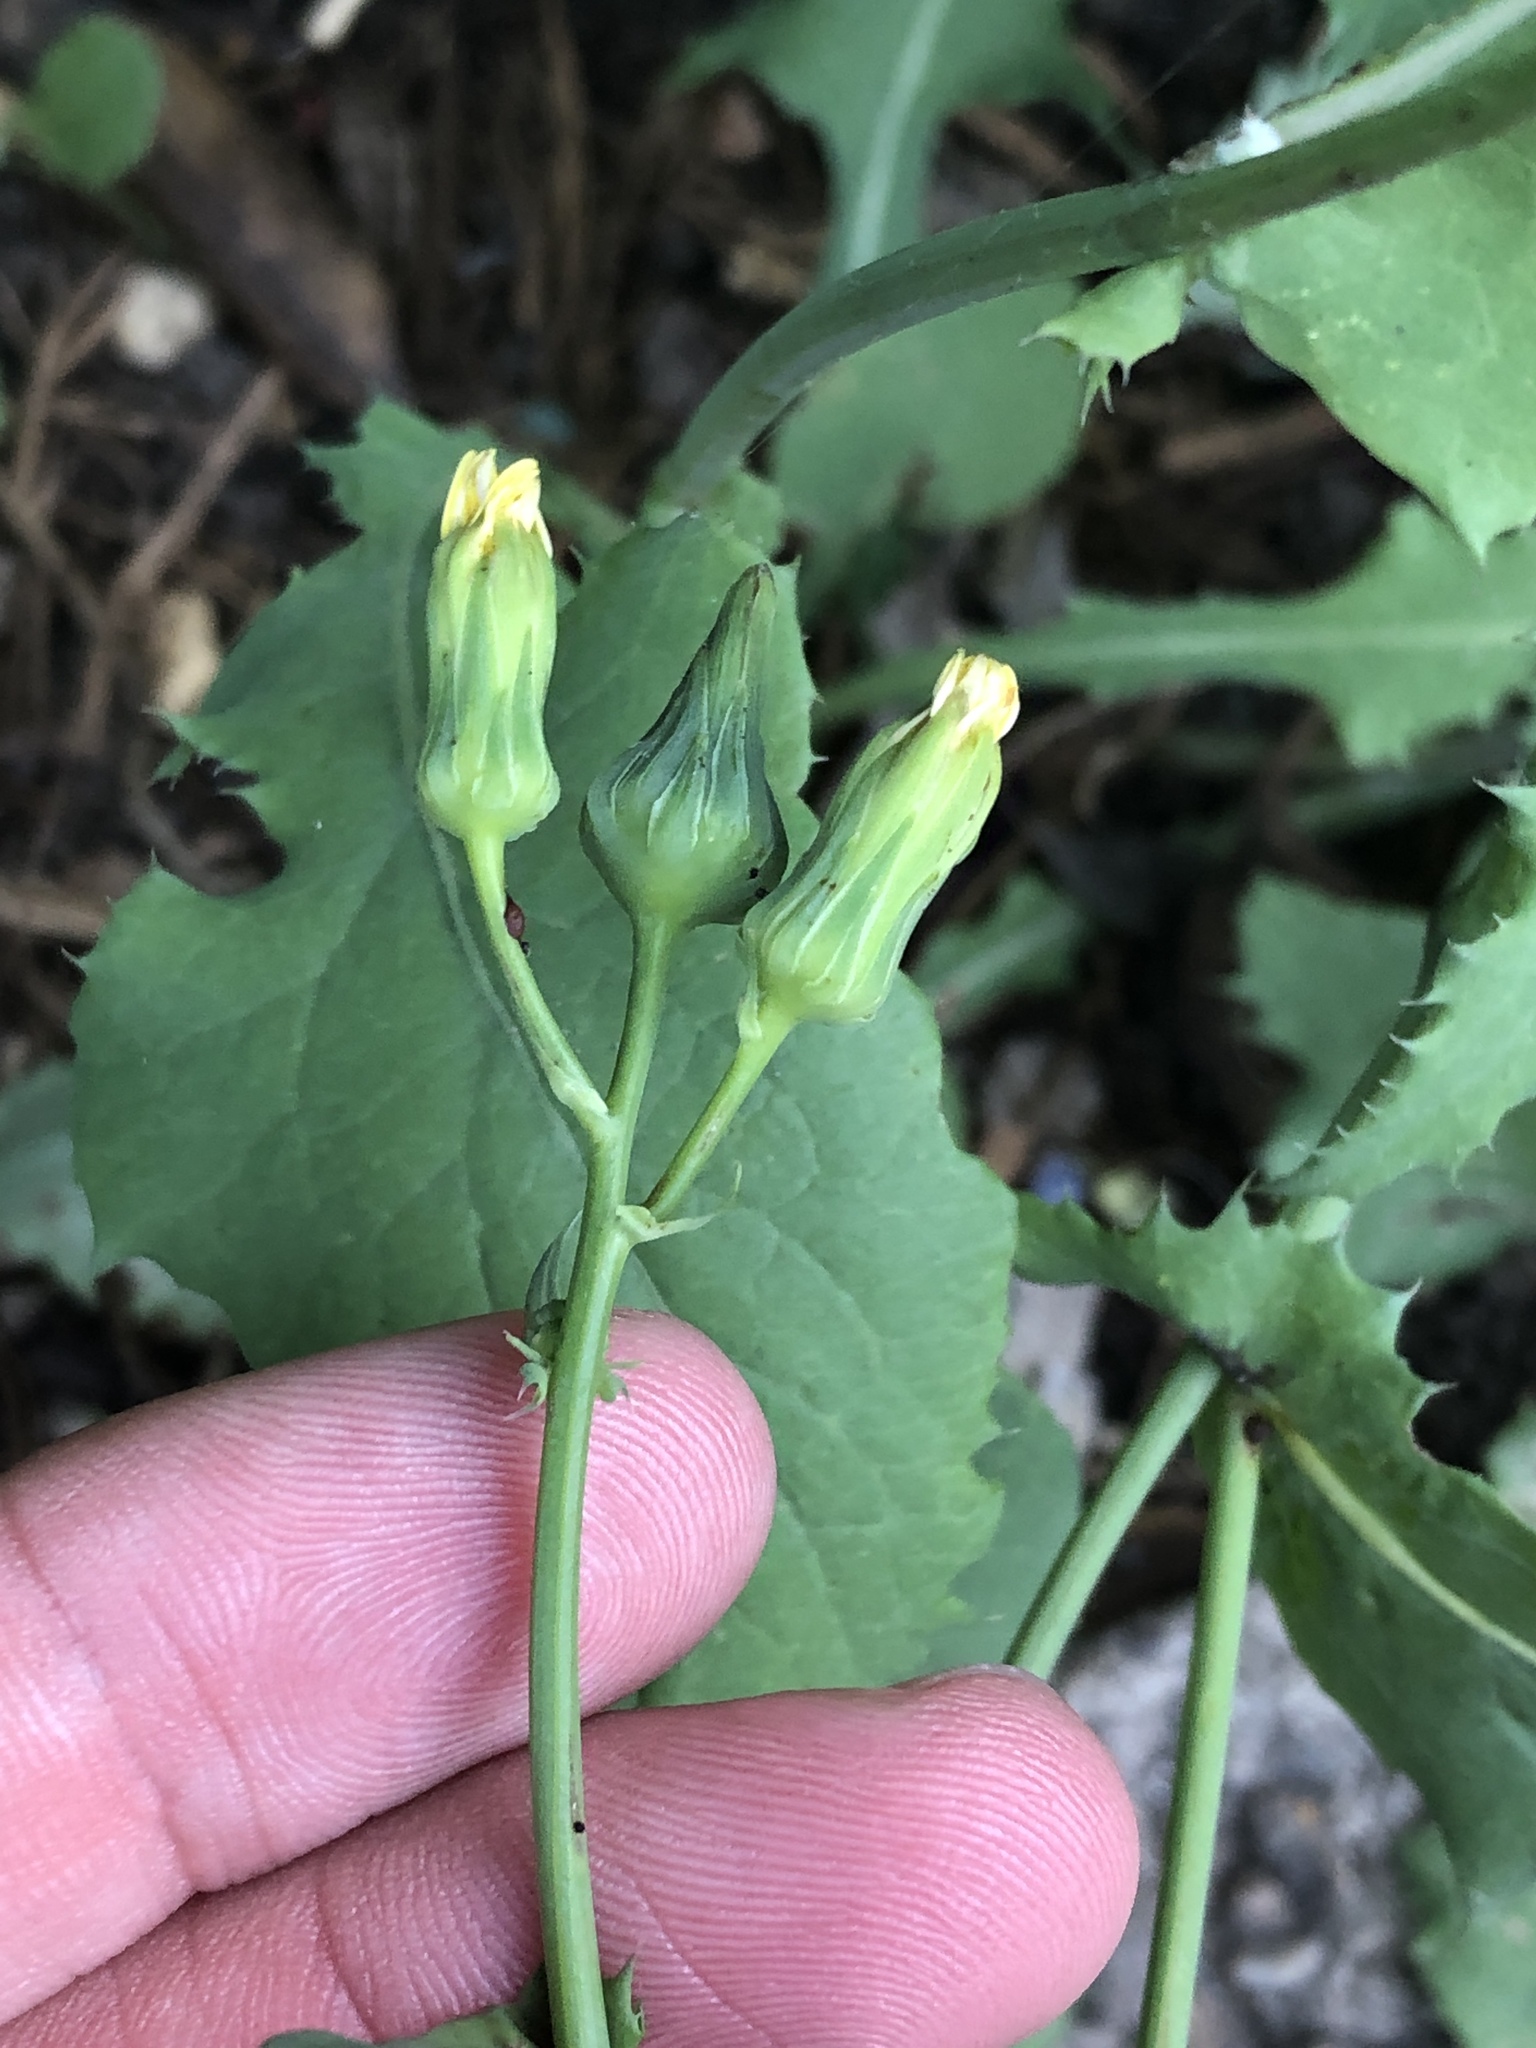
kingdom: Plantae
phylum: Tracheophyta
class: Magnoliopsida
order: Asterales
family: Asteraceae
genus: Sonchus
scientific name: Sonchus oleraceus
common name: Common sowthistle
